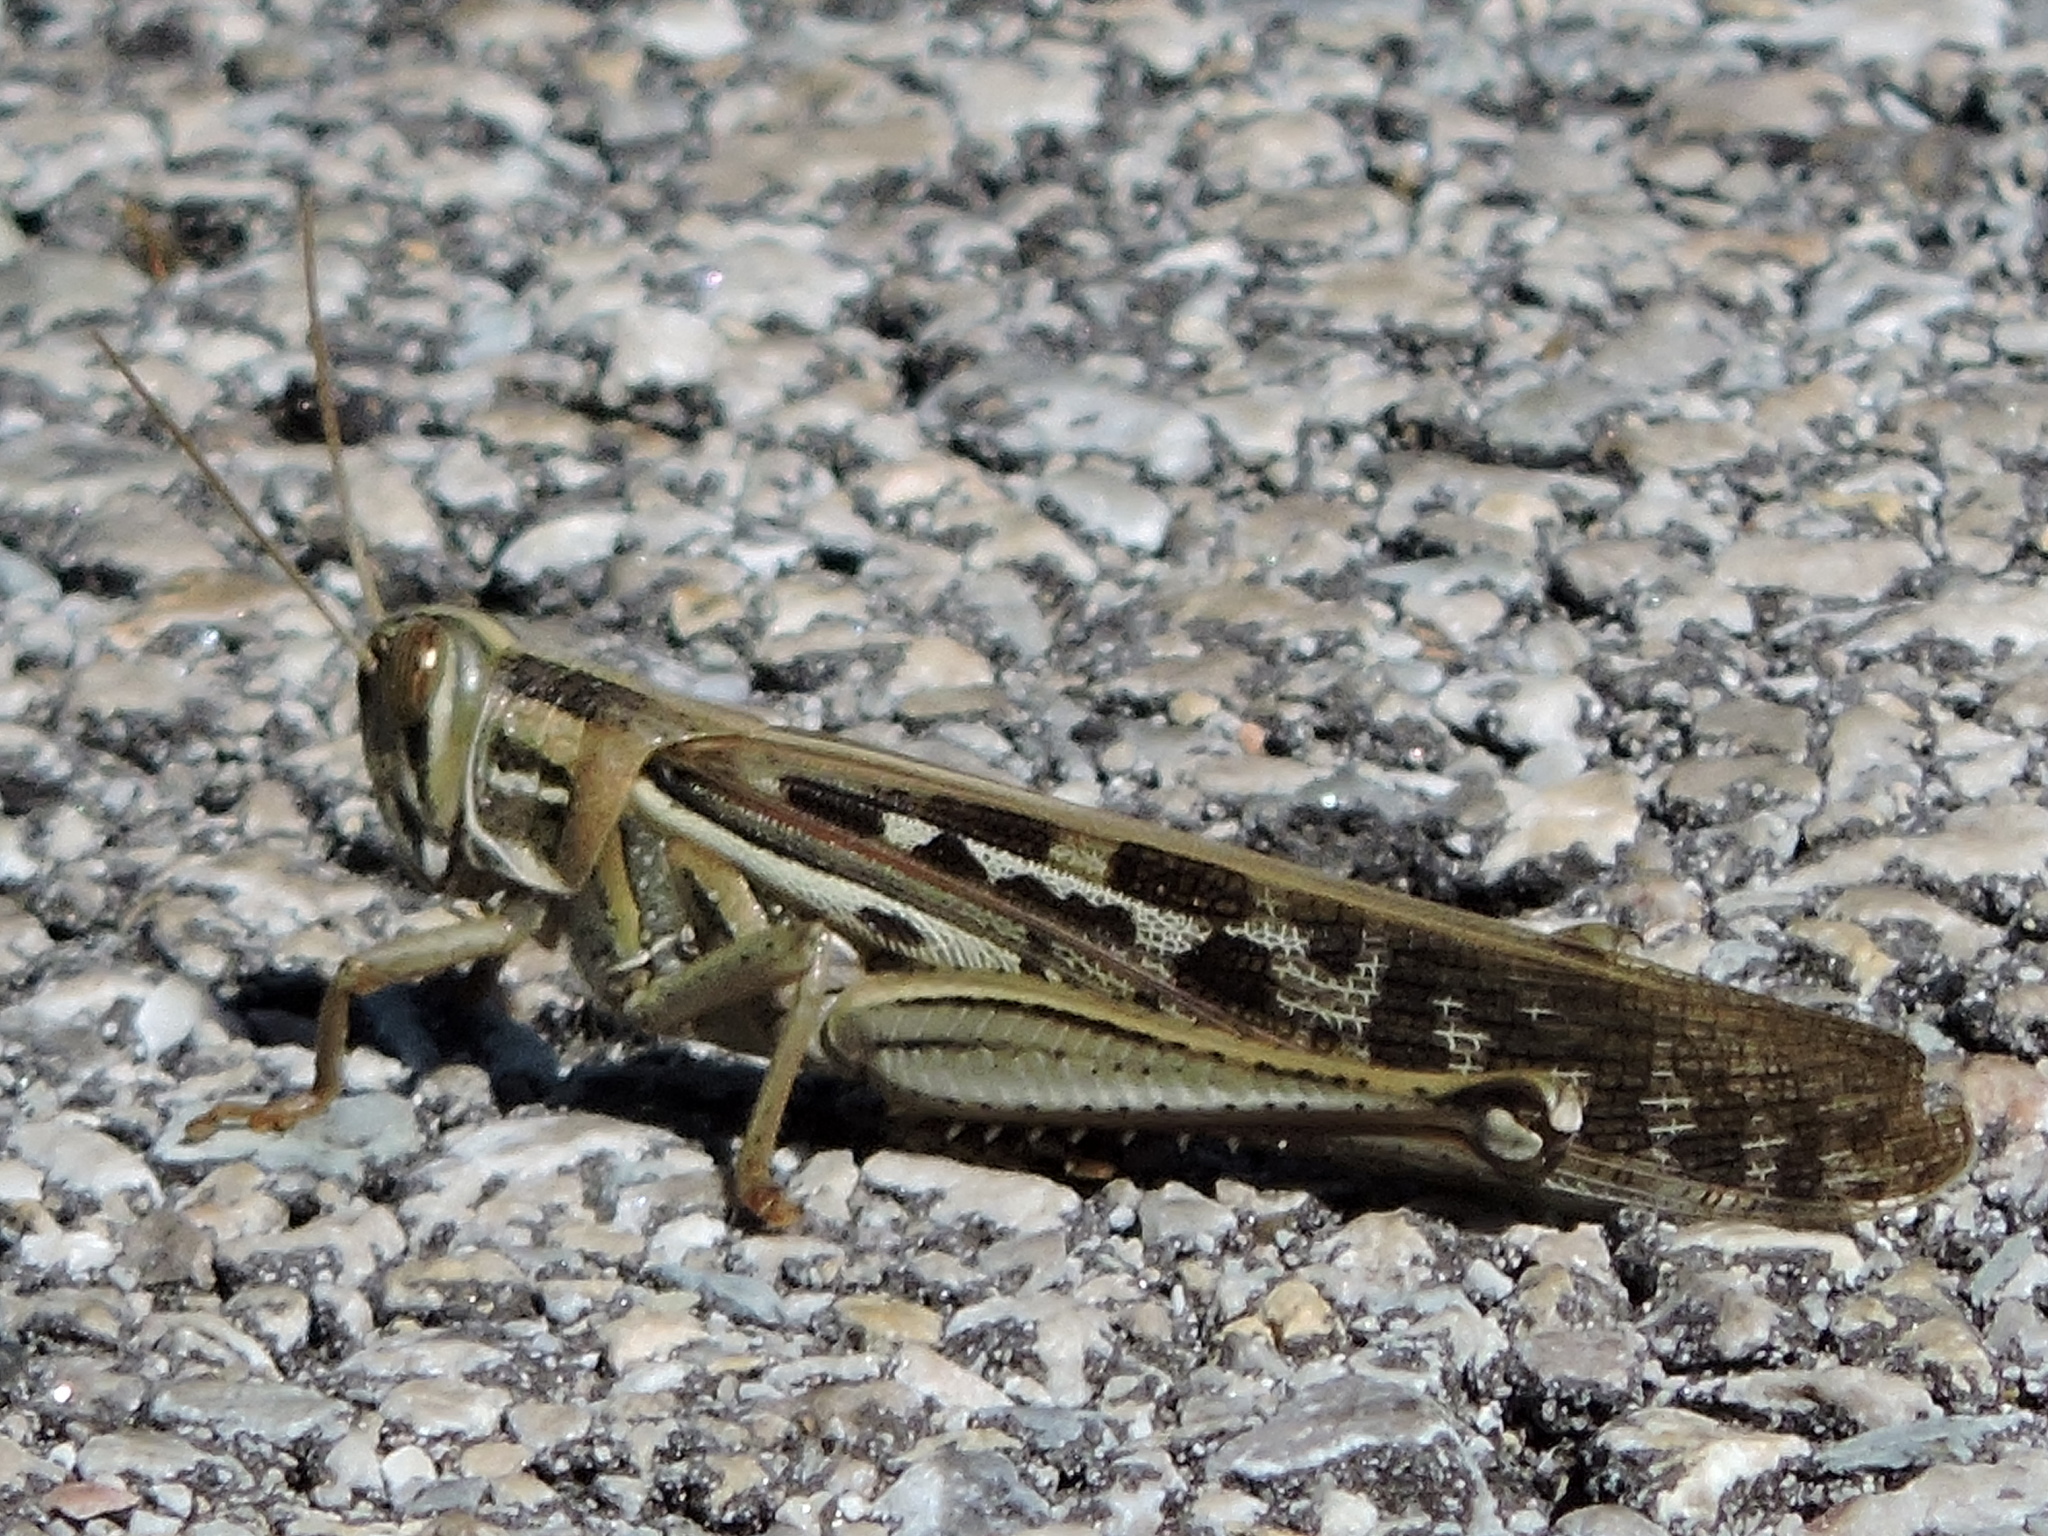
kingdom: Animalia
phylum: Arthropoda
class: Insecta
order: Orthoptera
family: Acrididae
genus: Schistocerca
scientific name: Schistocerca americana
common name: American bird locust
